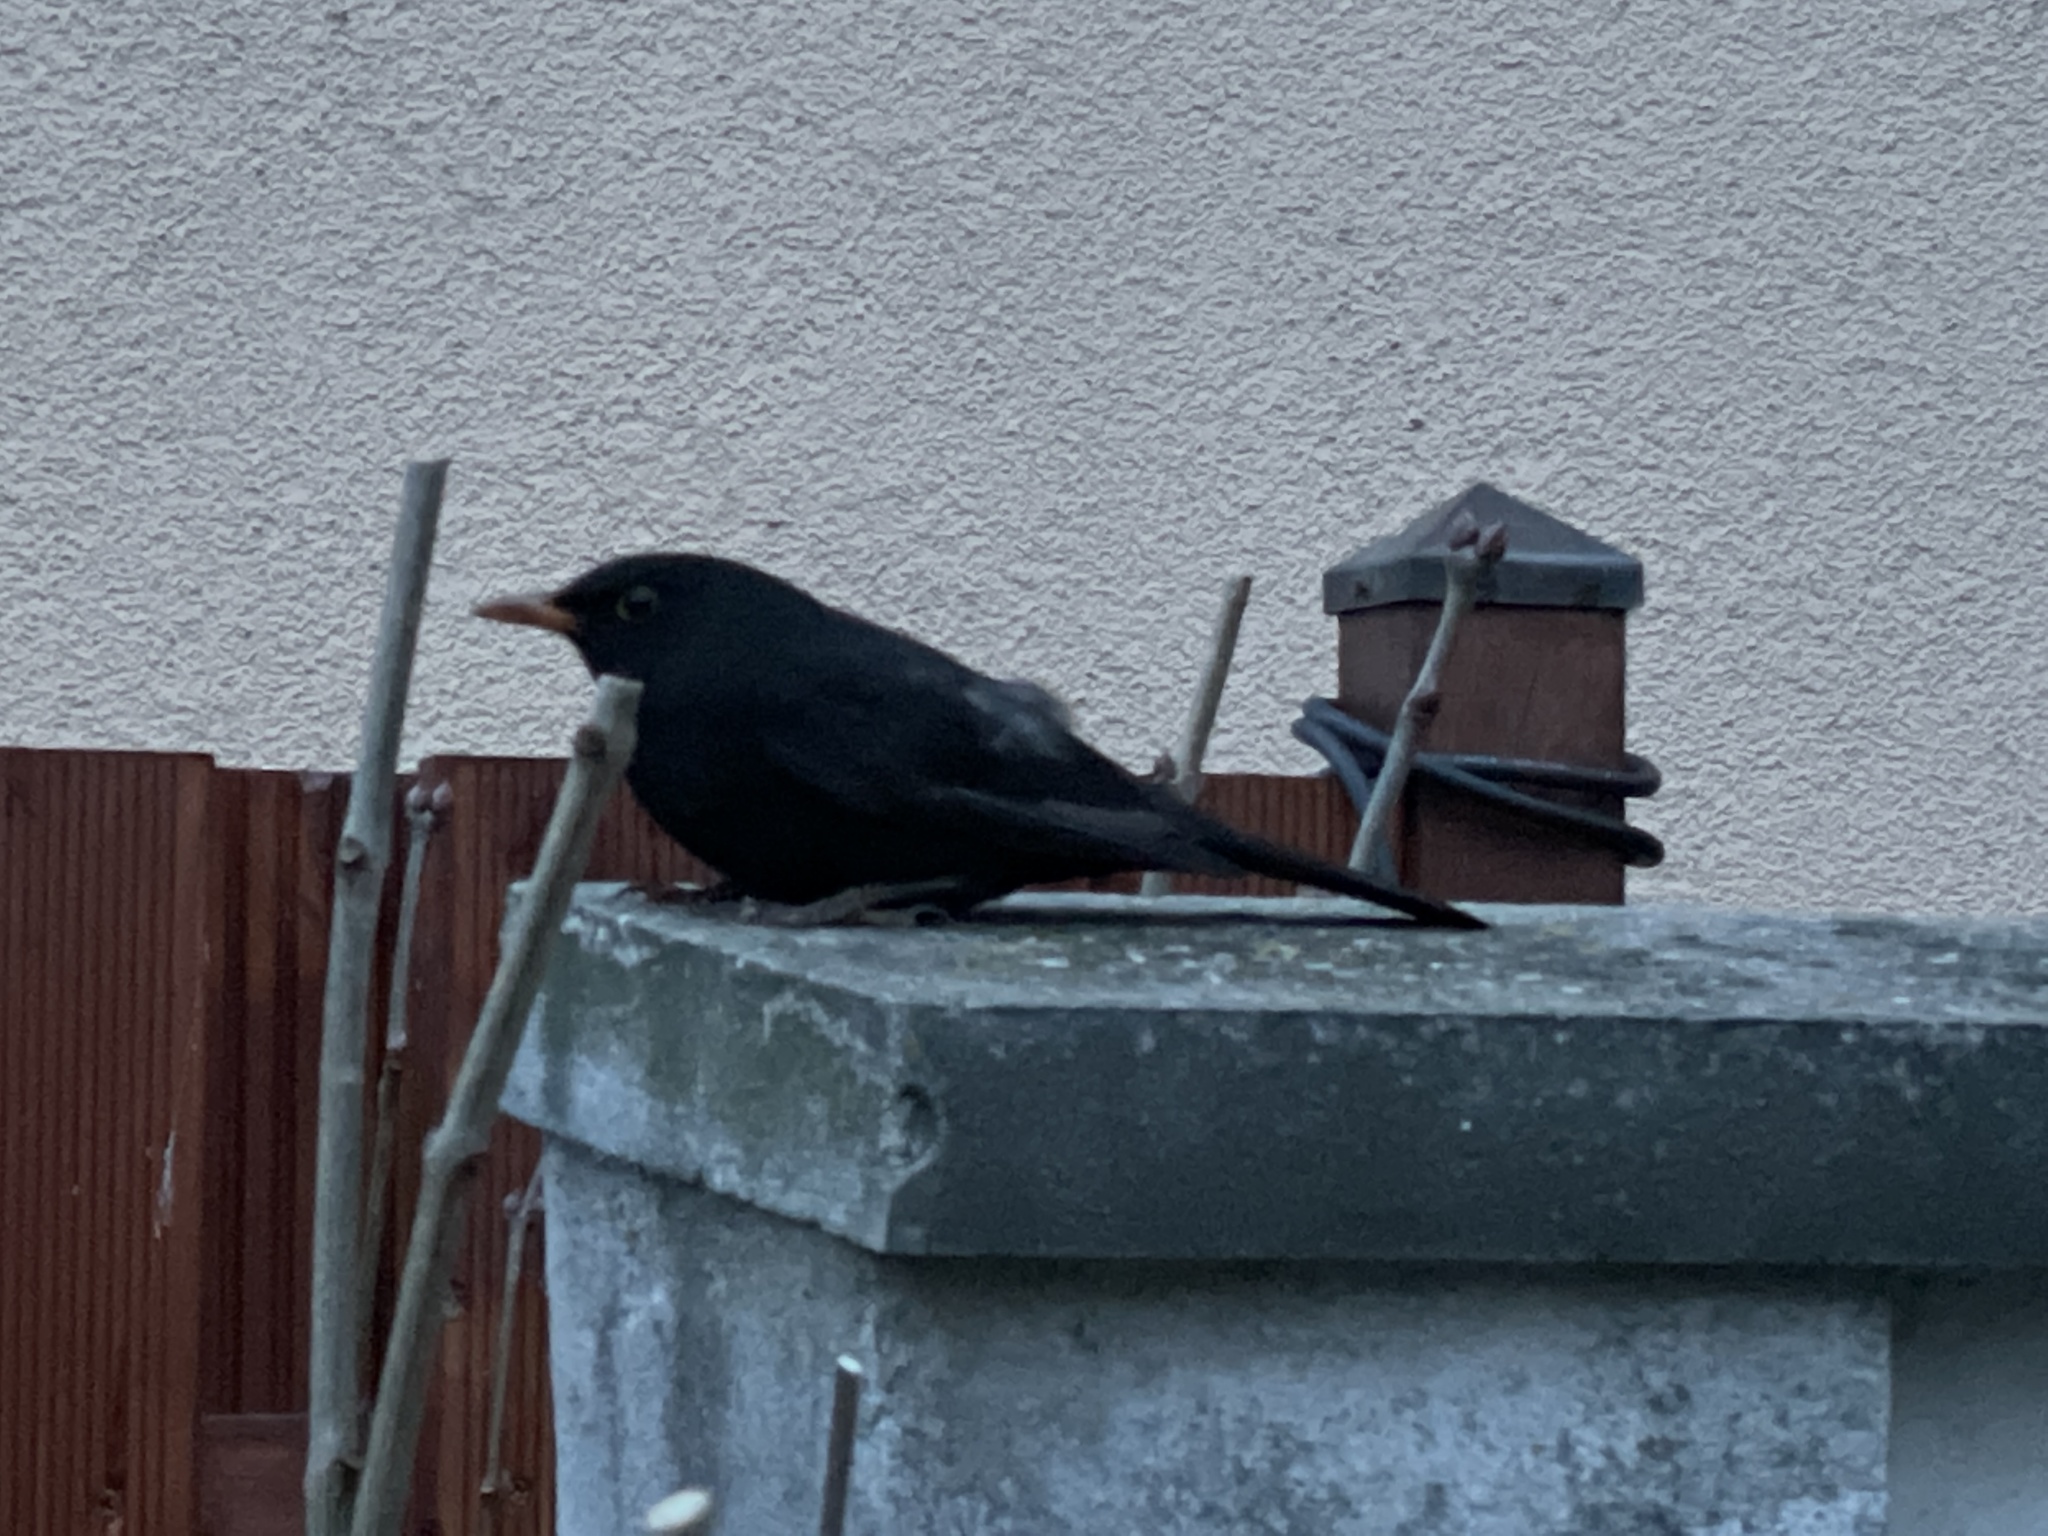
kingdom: Animalia
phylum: Chordata
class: Aves
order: Passeriformes
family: Turdidae
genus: Turdus
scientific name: Turdus merula
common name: Common blackbird
